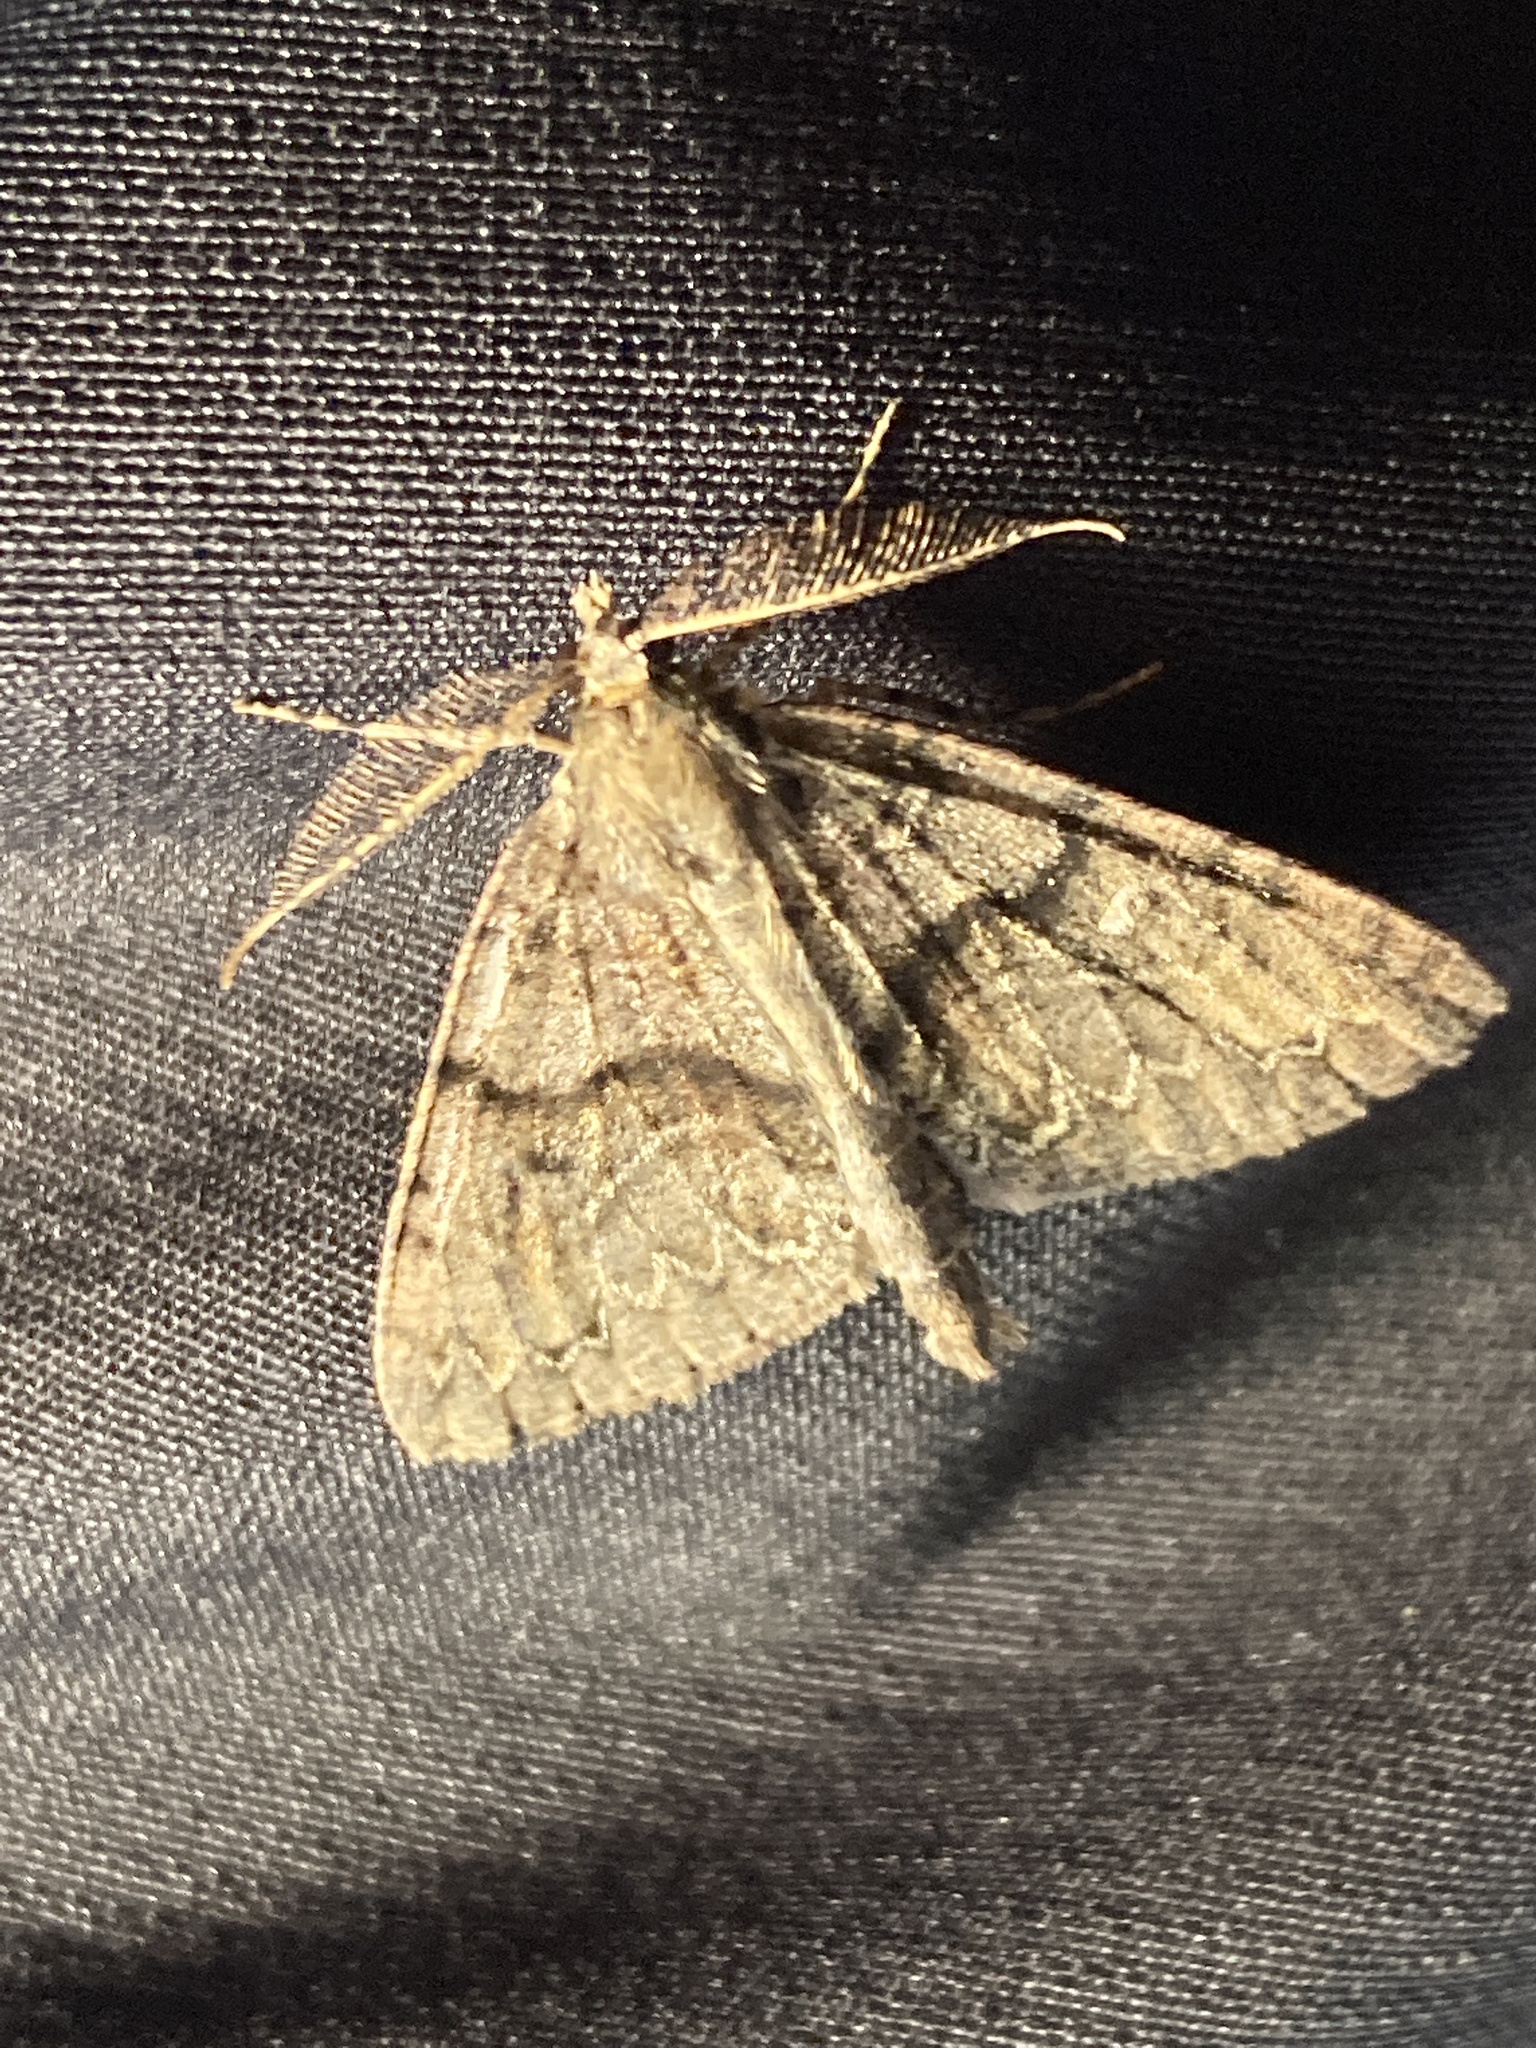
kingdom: Animalia
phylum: Arthropoda
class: Insecta
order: Lepidoptera
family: Geometridae
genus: Pseudocoremia
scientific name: Pseudocoremia suavis
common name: Common forest looper
